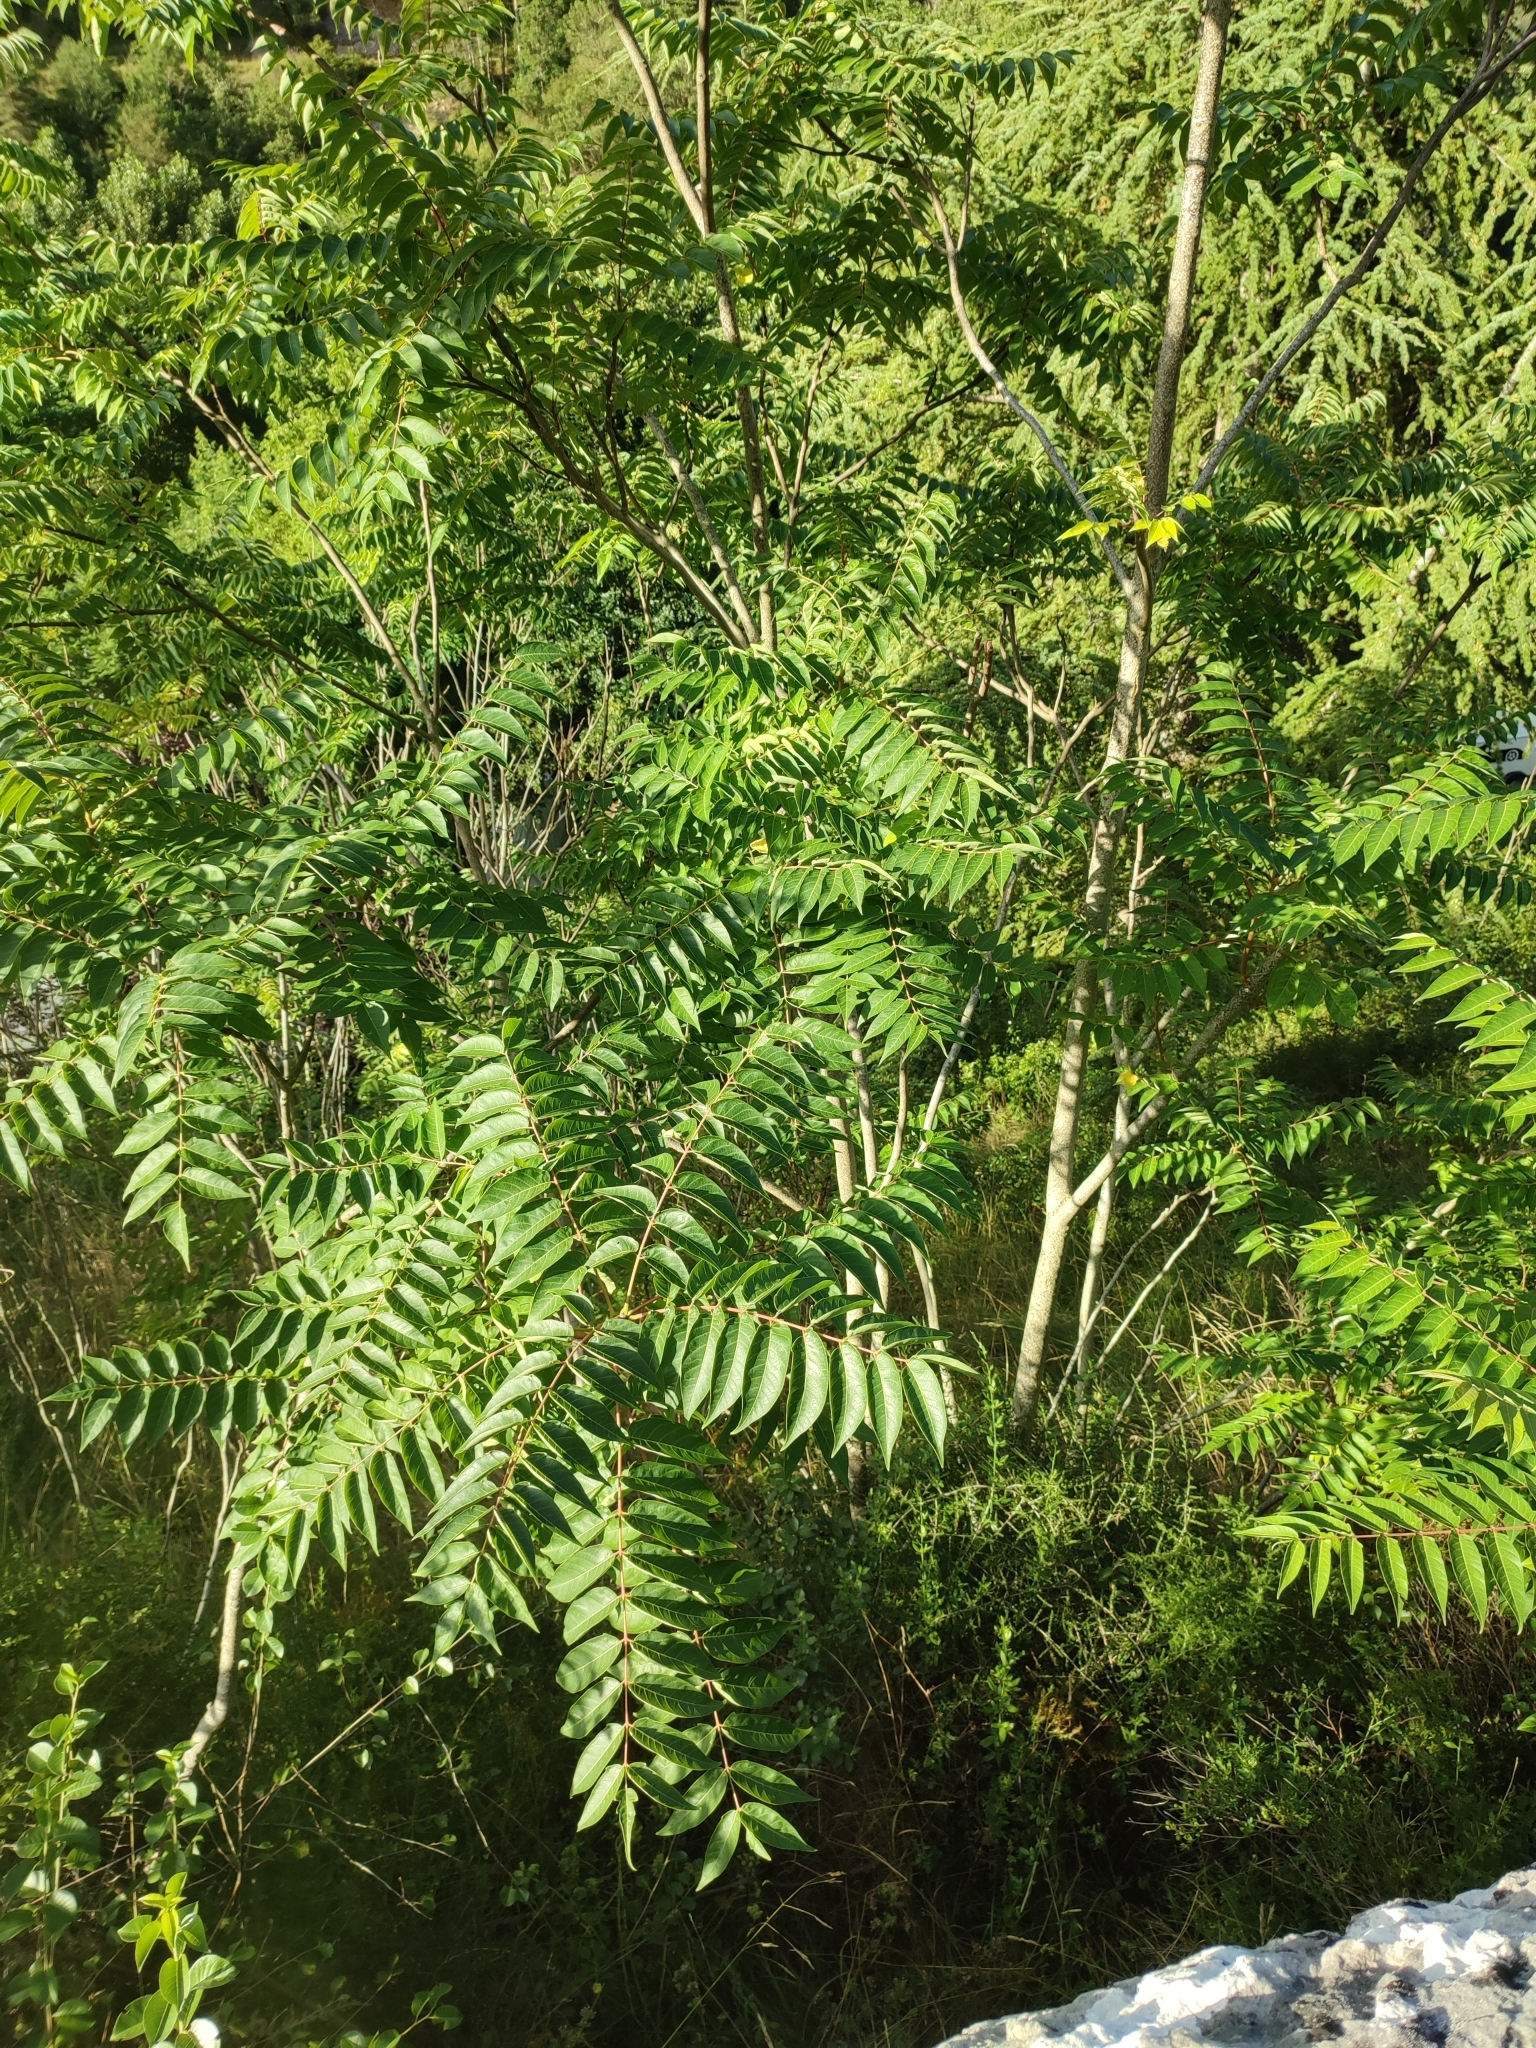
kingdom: Plantae
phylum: Tracheophyta
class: Magnoliopsida
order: Sapindales
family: Simaroubaceae
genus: Ailanthus
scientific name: Ailanthus altissima
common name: Tree-of-heaven
